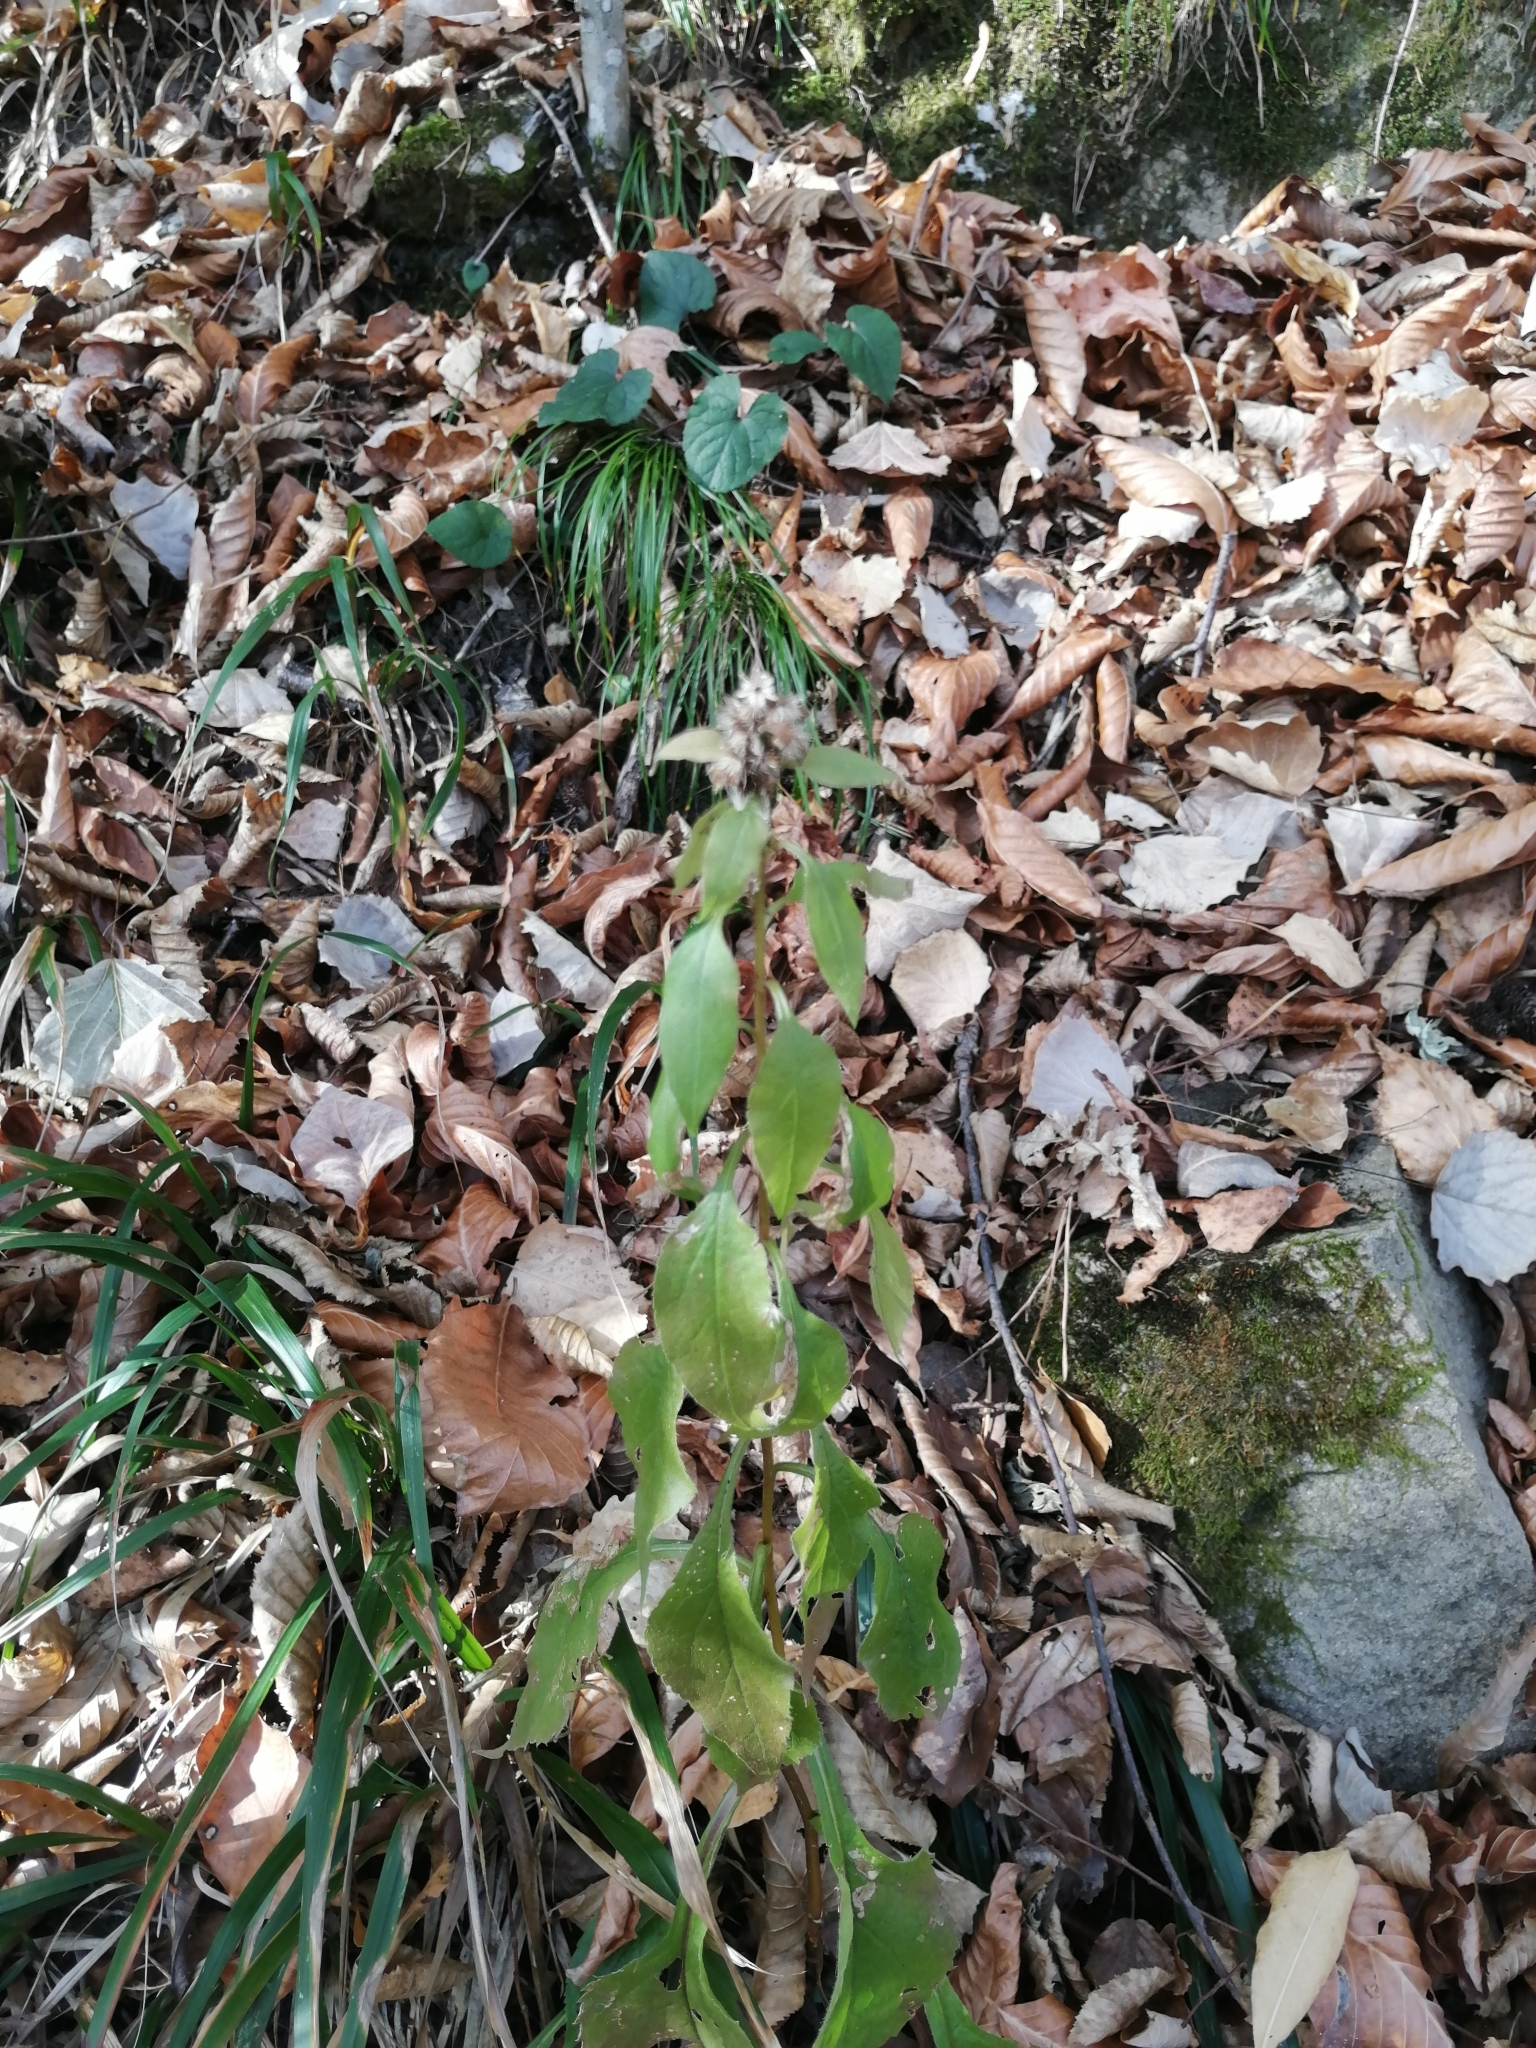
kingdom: Plantae
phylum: Tracheophyta
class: Magnoliopsida
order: Asterales
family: Asteraceae
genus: Solidago
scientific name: Solidago virgaurea
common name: Goldenrod
